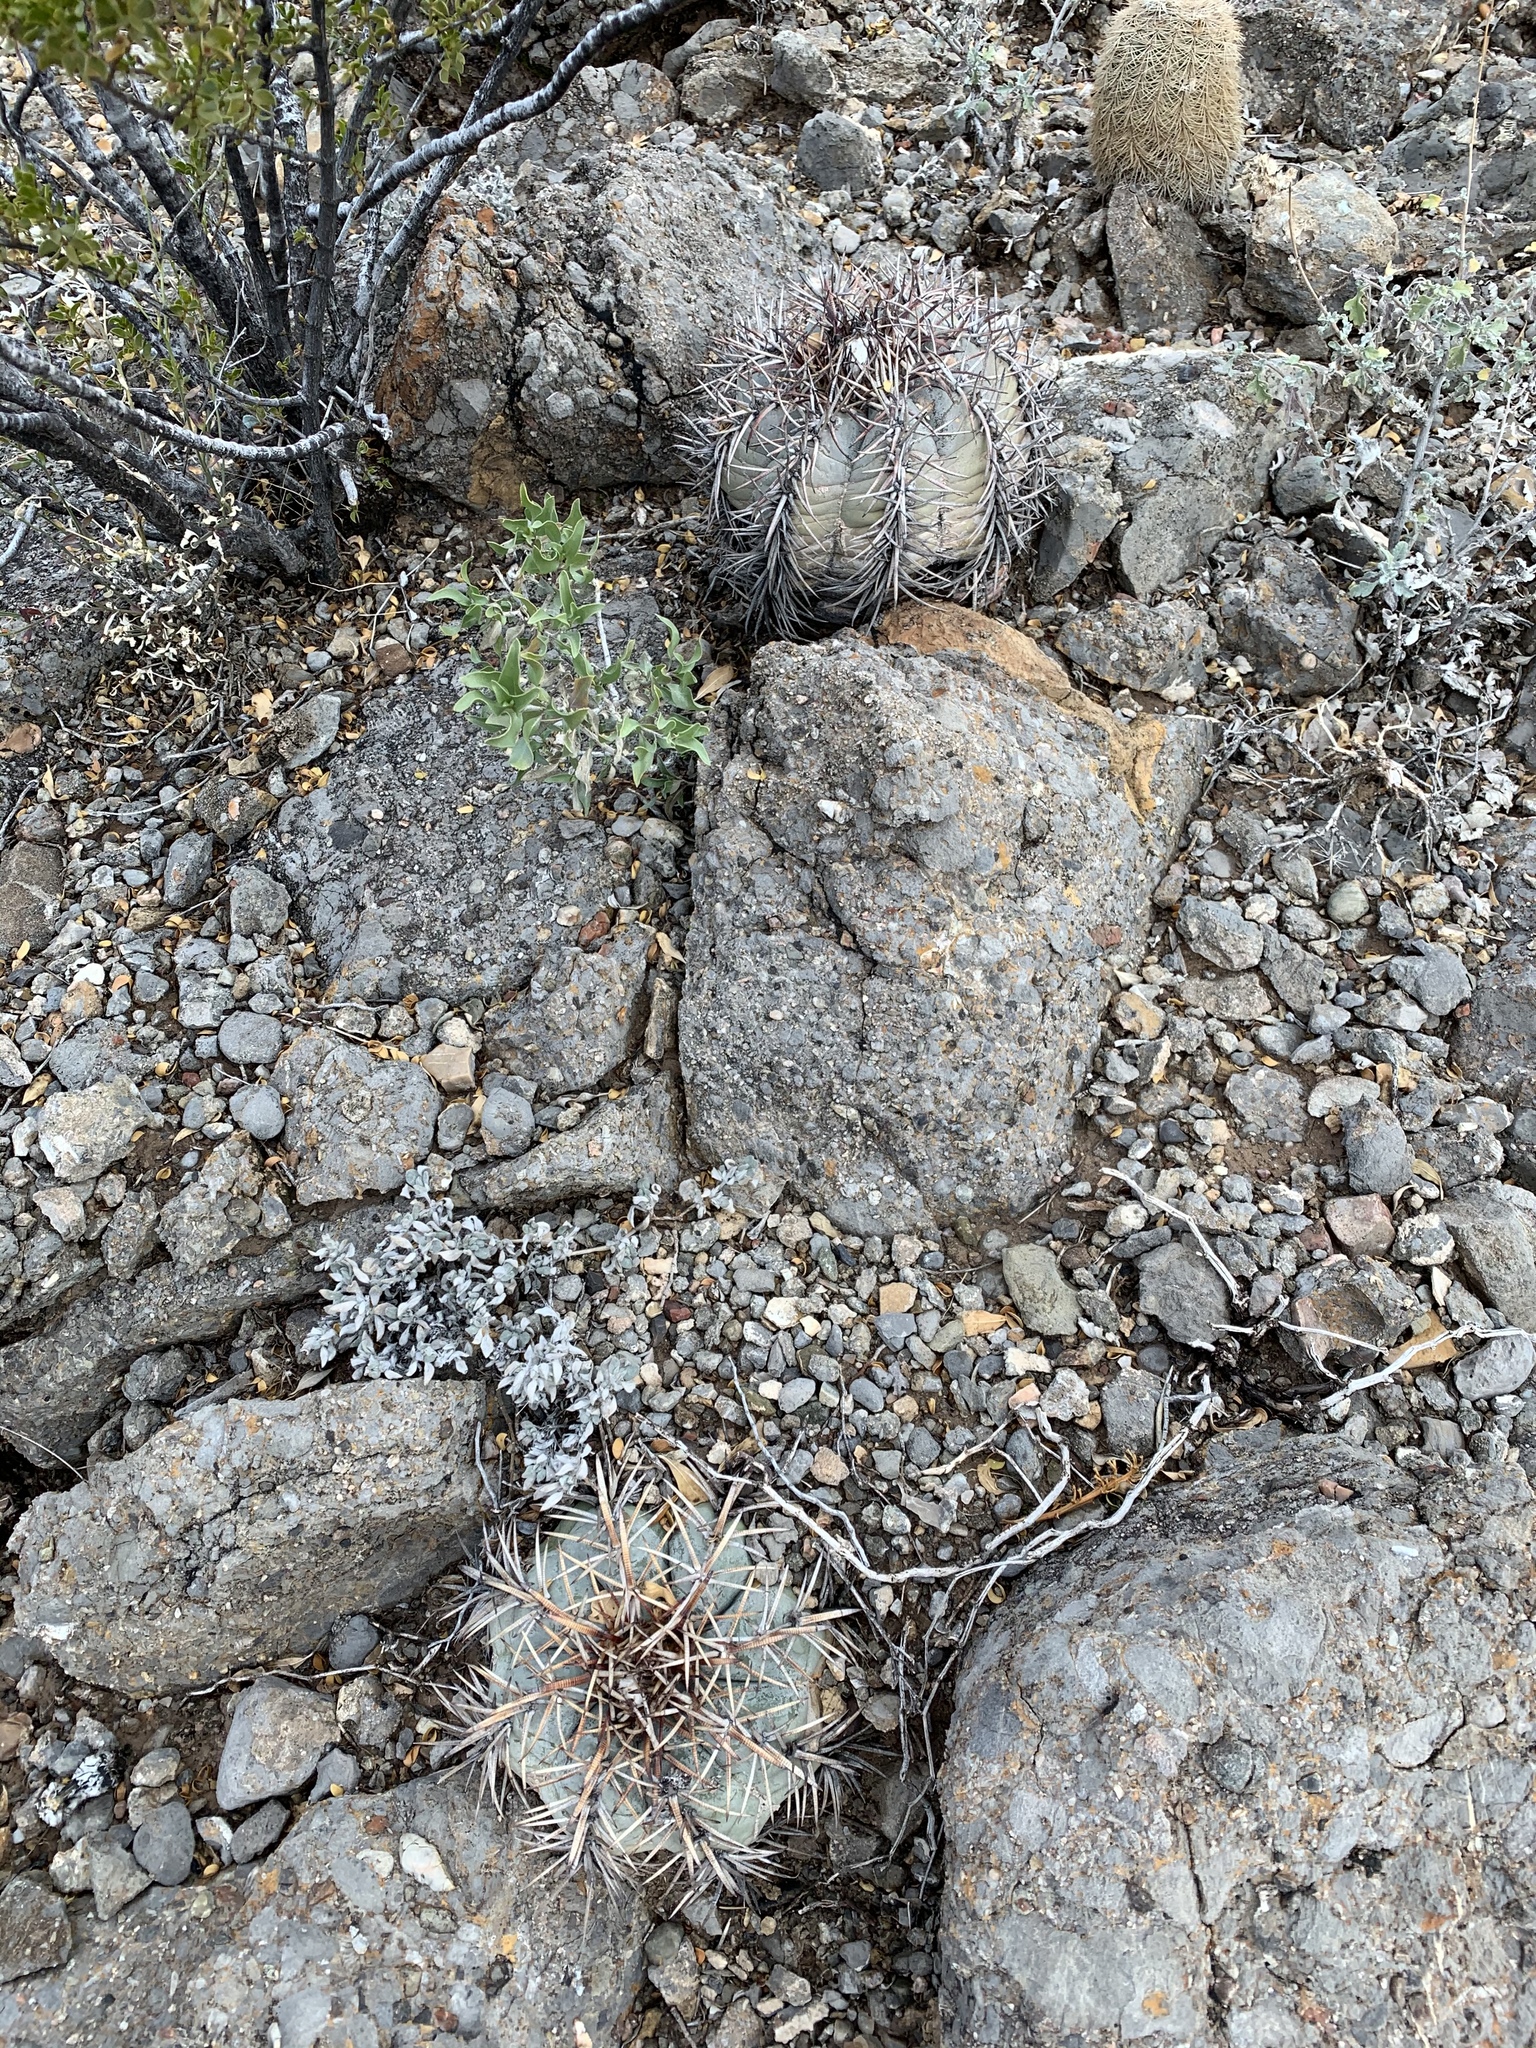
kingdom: Plantae
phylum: Tracheophyta
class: Magnoliopsida
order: Caryophyllales
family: Cactaceae
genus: Echinocactus
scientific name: Echinocactus horizonthalonius
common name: Devilshead
